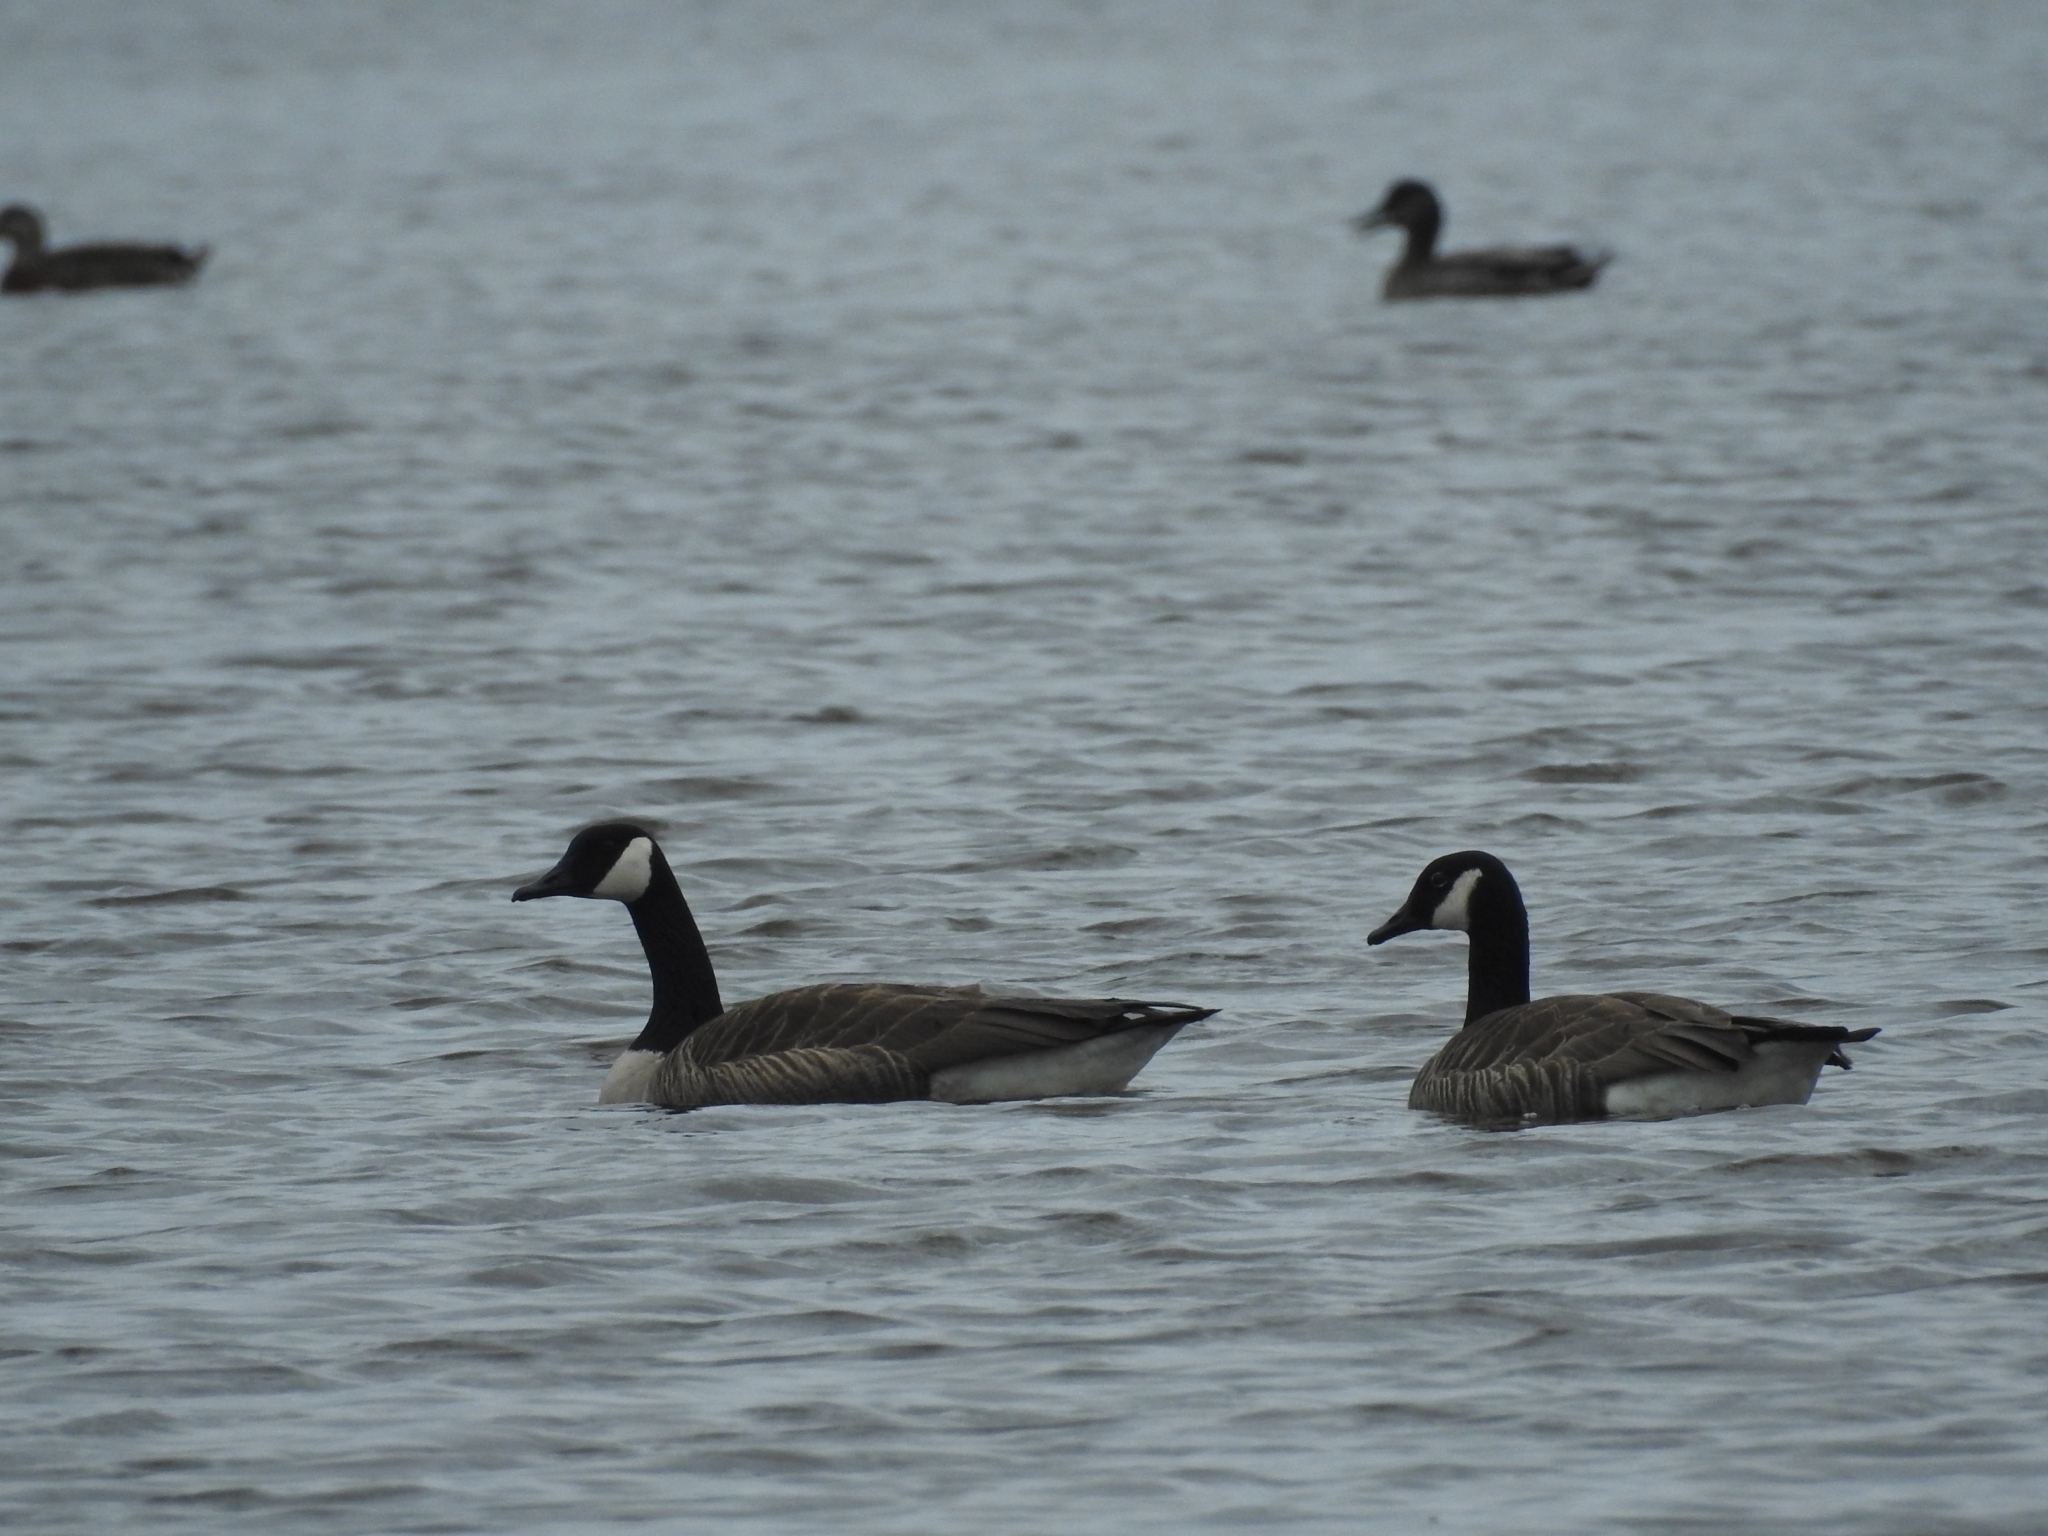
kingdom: Animalia
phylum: Chordata
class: Aves
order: Anseriformes
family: Anatidae
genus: Branta
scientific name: Branta canadensis
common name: Canada goose
